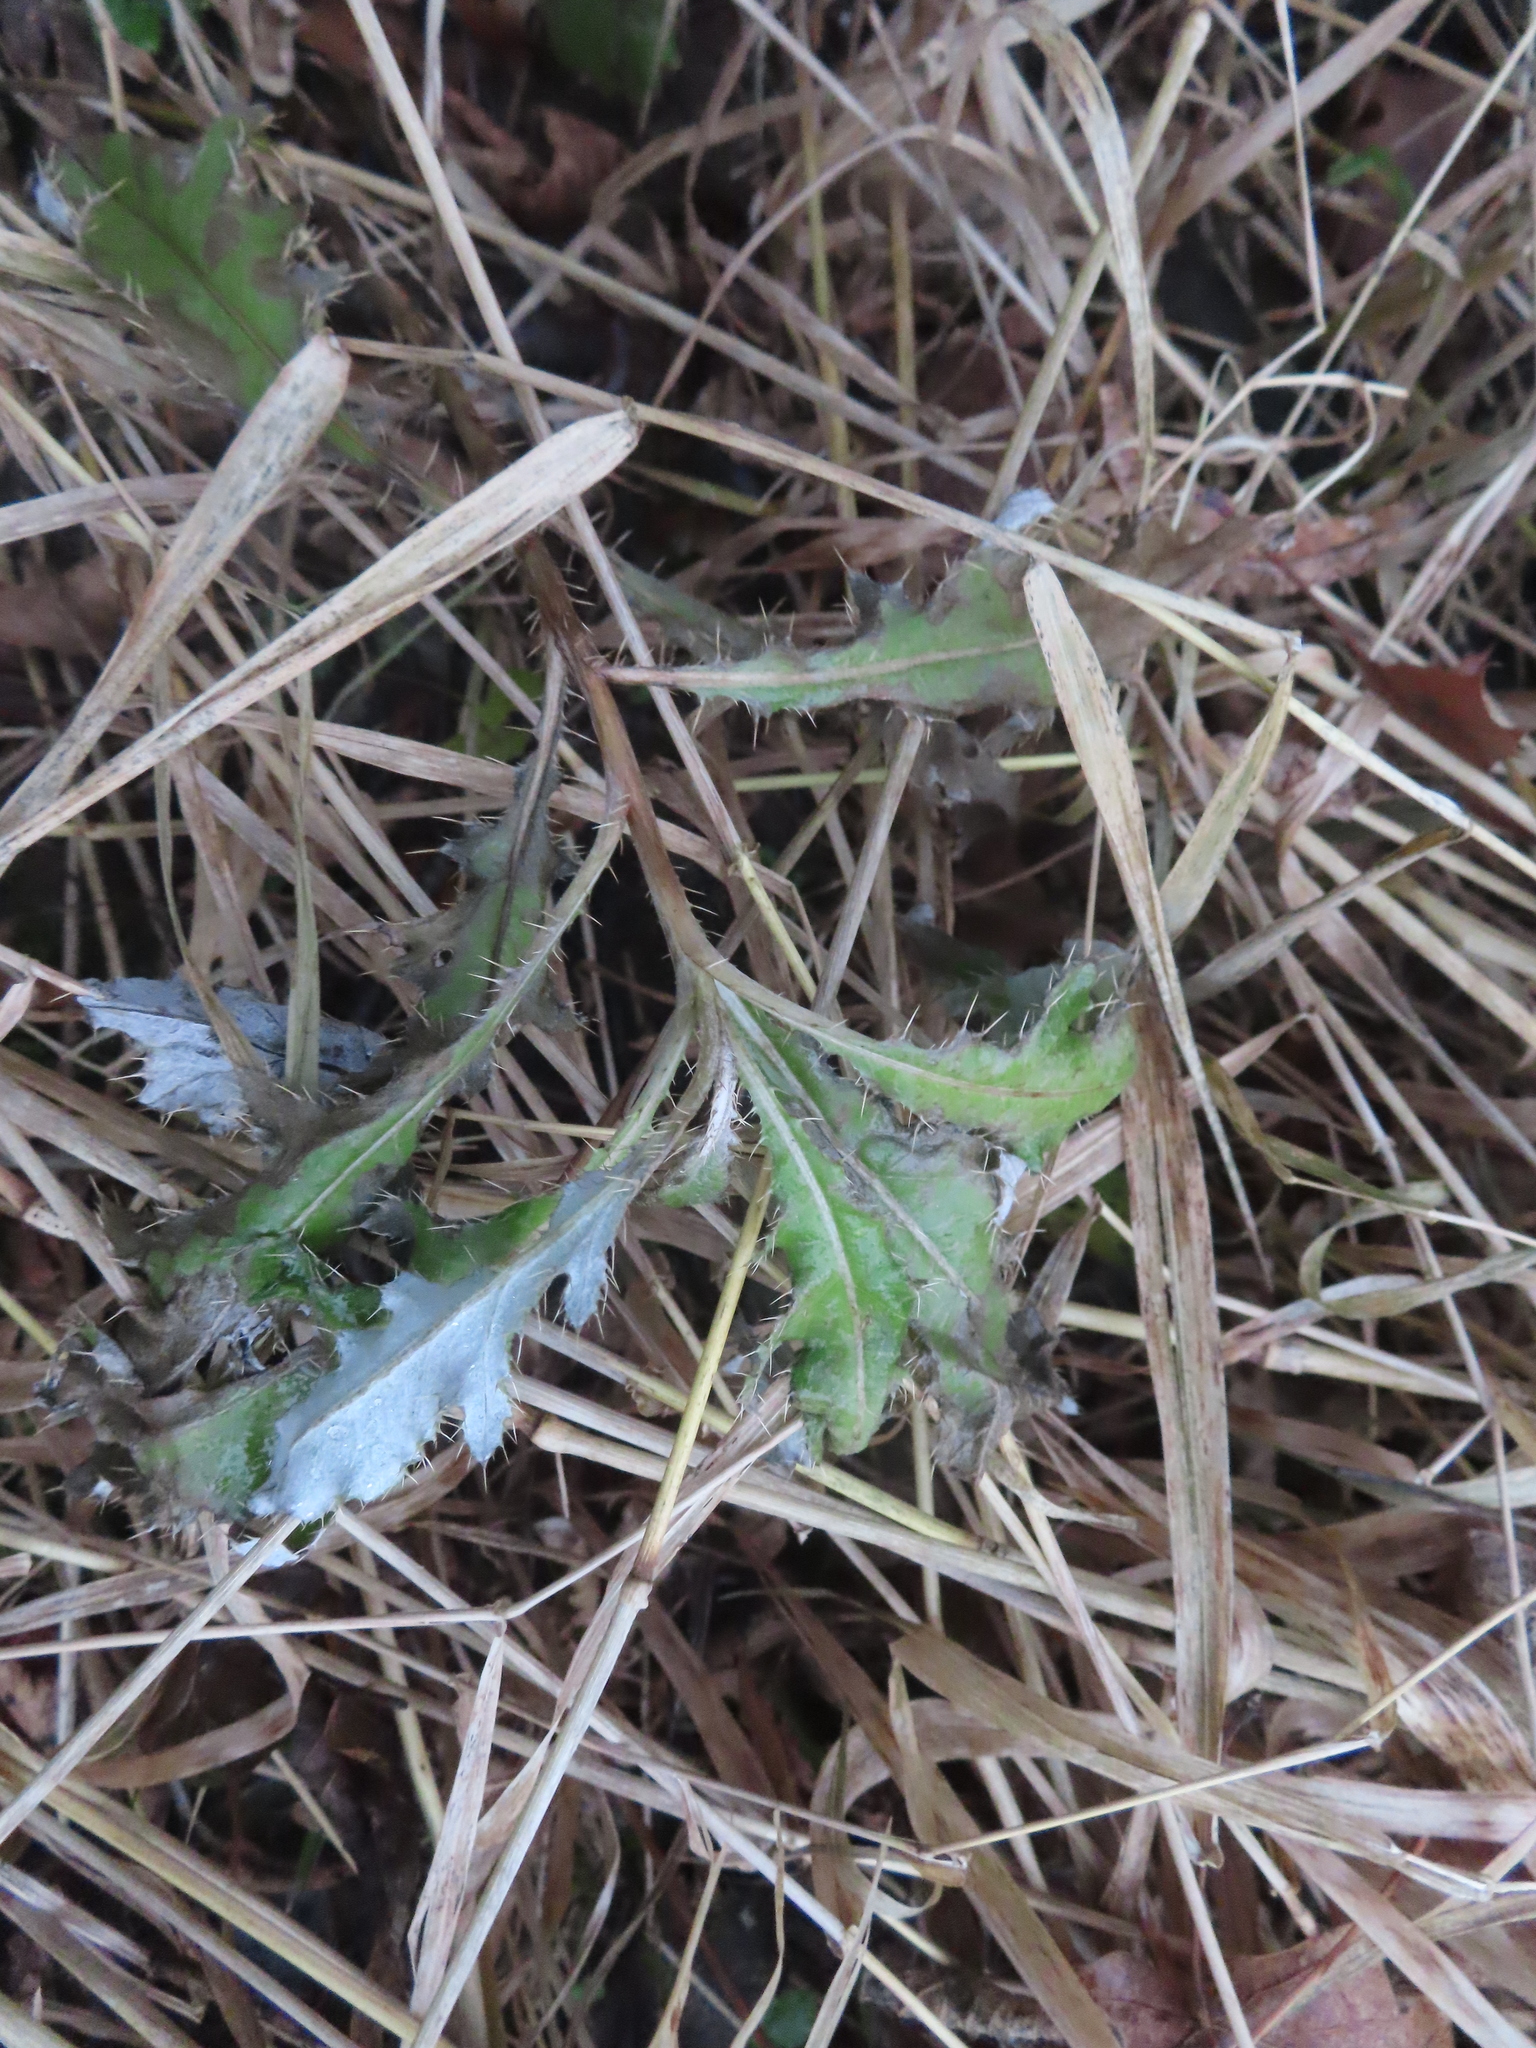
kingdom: Plantae
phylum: Tracheophyta
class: Magnoliopsida
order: Asterales
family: Asteraceae
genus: Cirsium
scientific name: Cirsium arvense
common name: Creeping thistle
